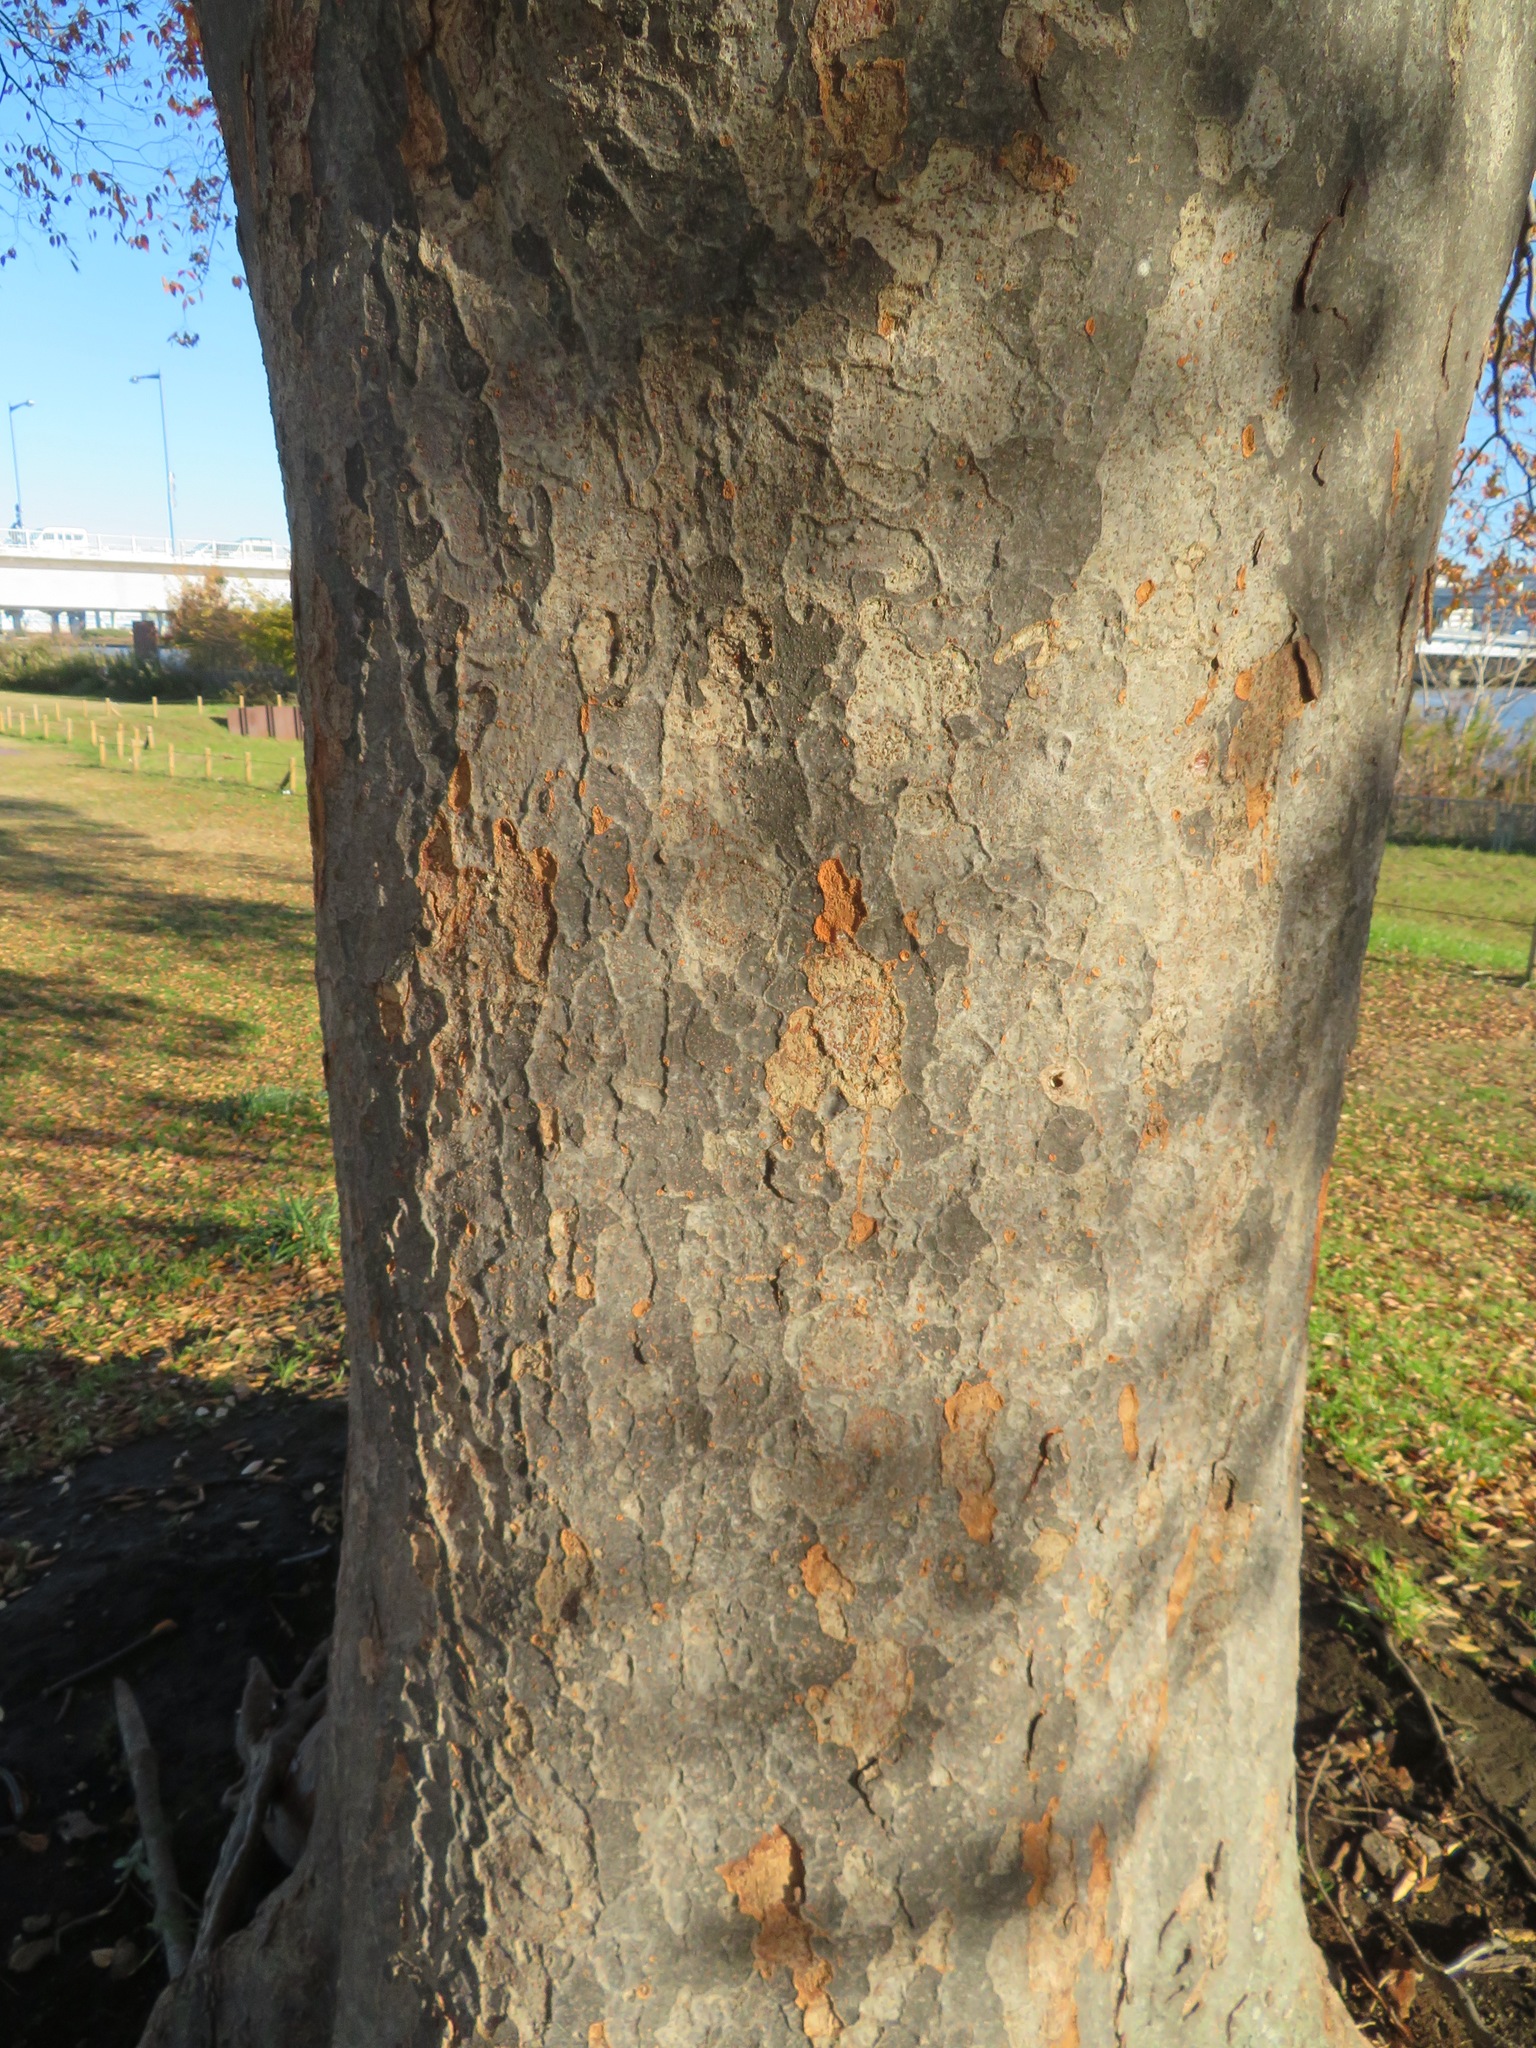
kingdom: Plantae
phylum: Tracheophyta
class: Magnoliopsida
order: Rosales
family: Ulmaceae
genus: Zelkova
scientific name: Zelkova serrata
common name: Japanese zelkova
